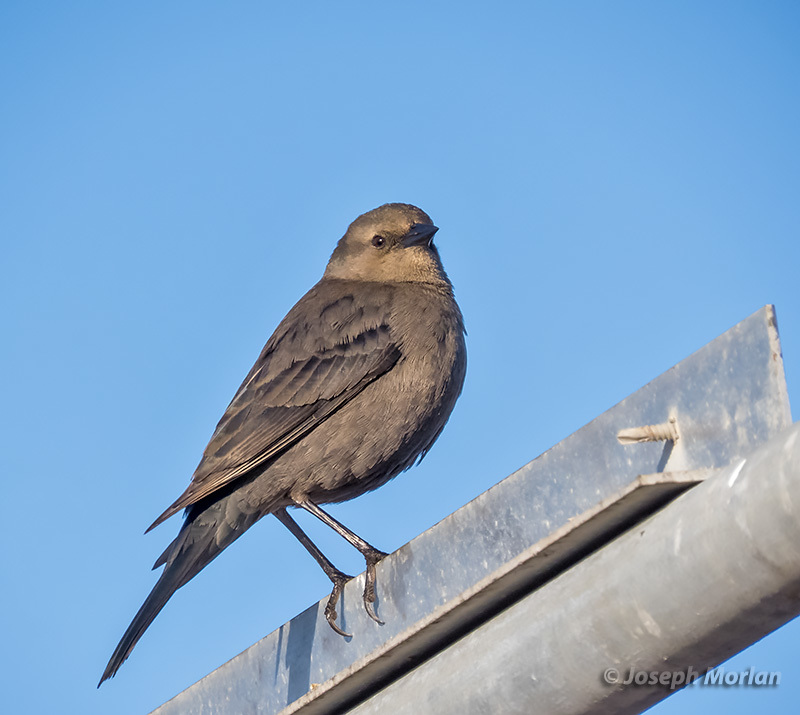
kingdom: Animalia
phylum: Chordata
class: Aves
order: Passeriformes
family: Icteridae
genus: Euphagus
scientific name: Euphagus cyanocephalus
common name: Brewer's blackbird
